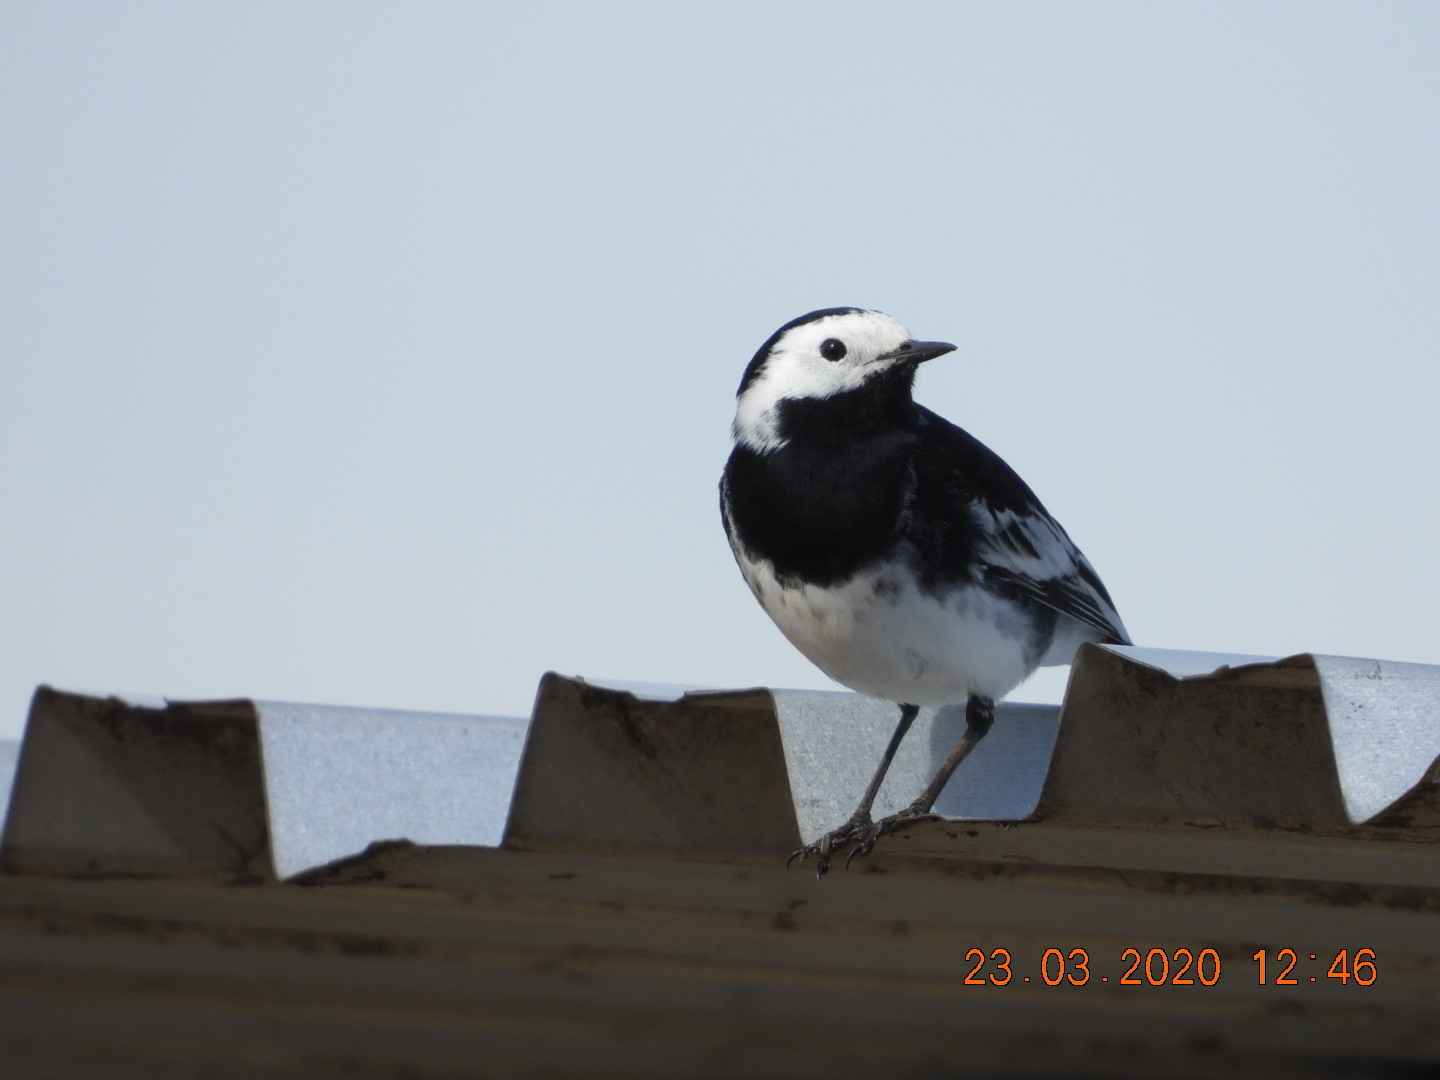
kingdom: Animalia
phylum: Chordata
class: Aves
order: Passeriformes
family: Motacillidae
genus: Motacilla
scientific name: Motacilla alba
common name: White wagtail
